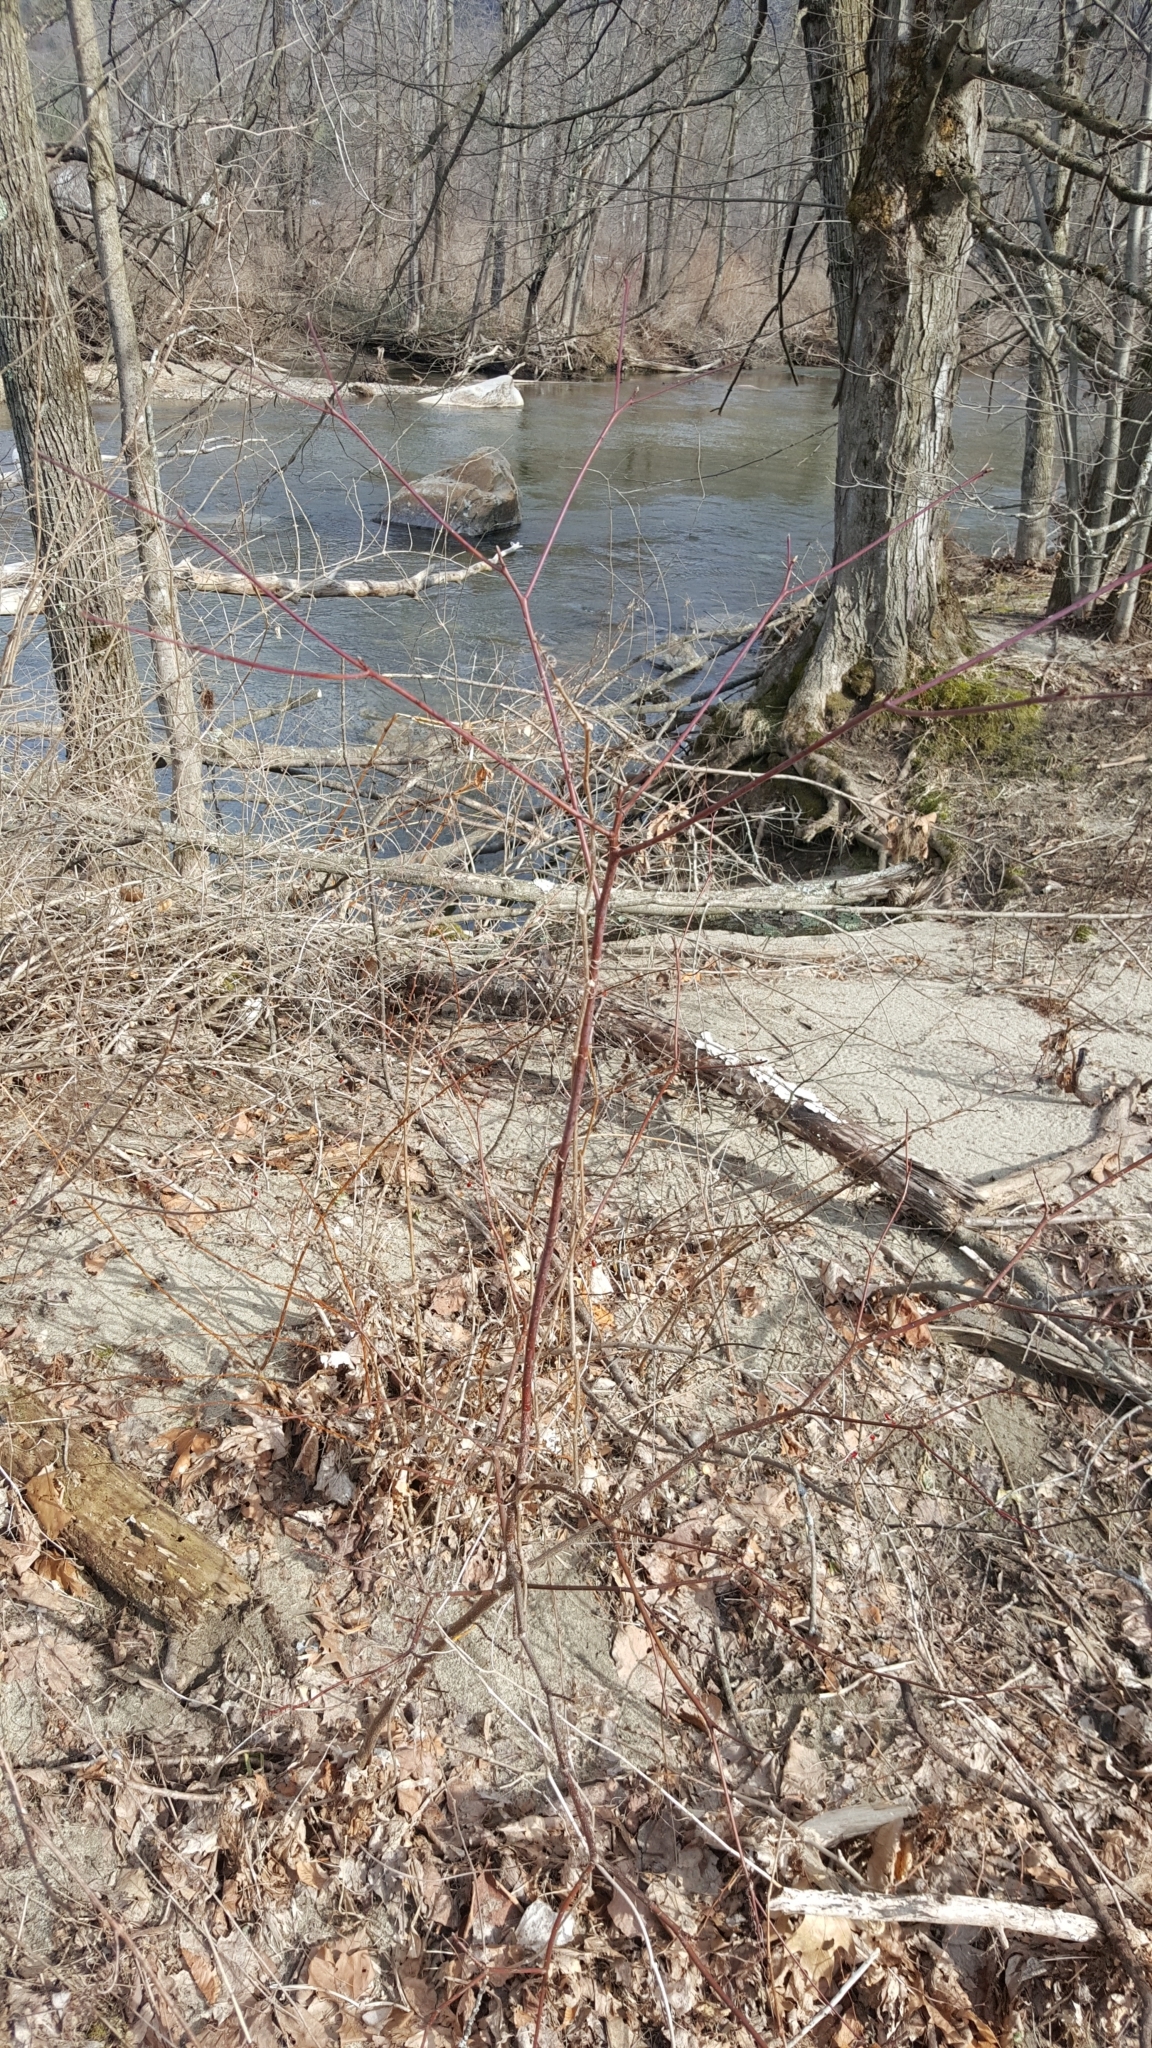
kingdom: Plantae
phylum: Tracheophyta
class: Magnoliopsida
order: Cornales
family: Cornaceae
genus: Cornus
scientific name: Cornus alternifolia
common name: Pagoda dogwood
